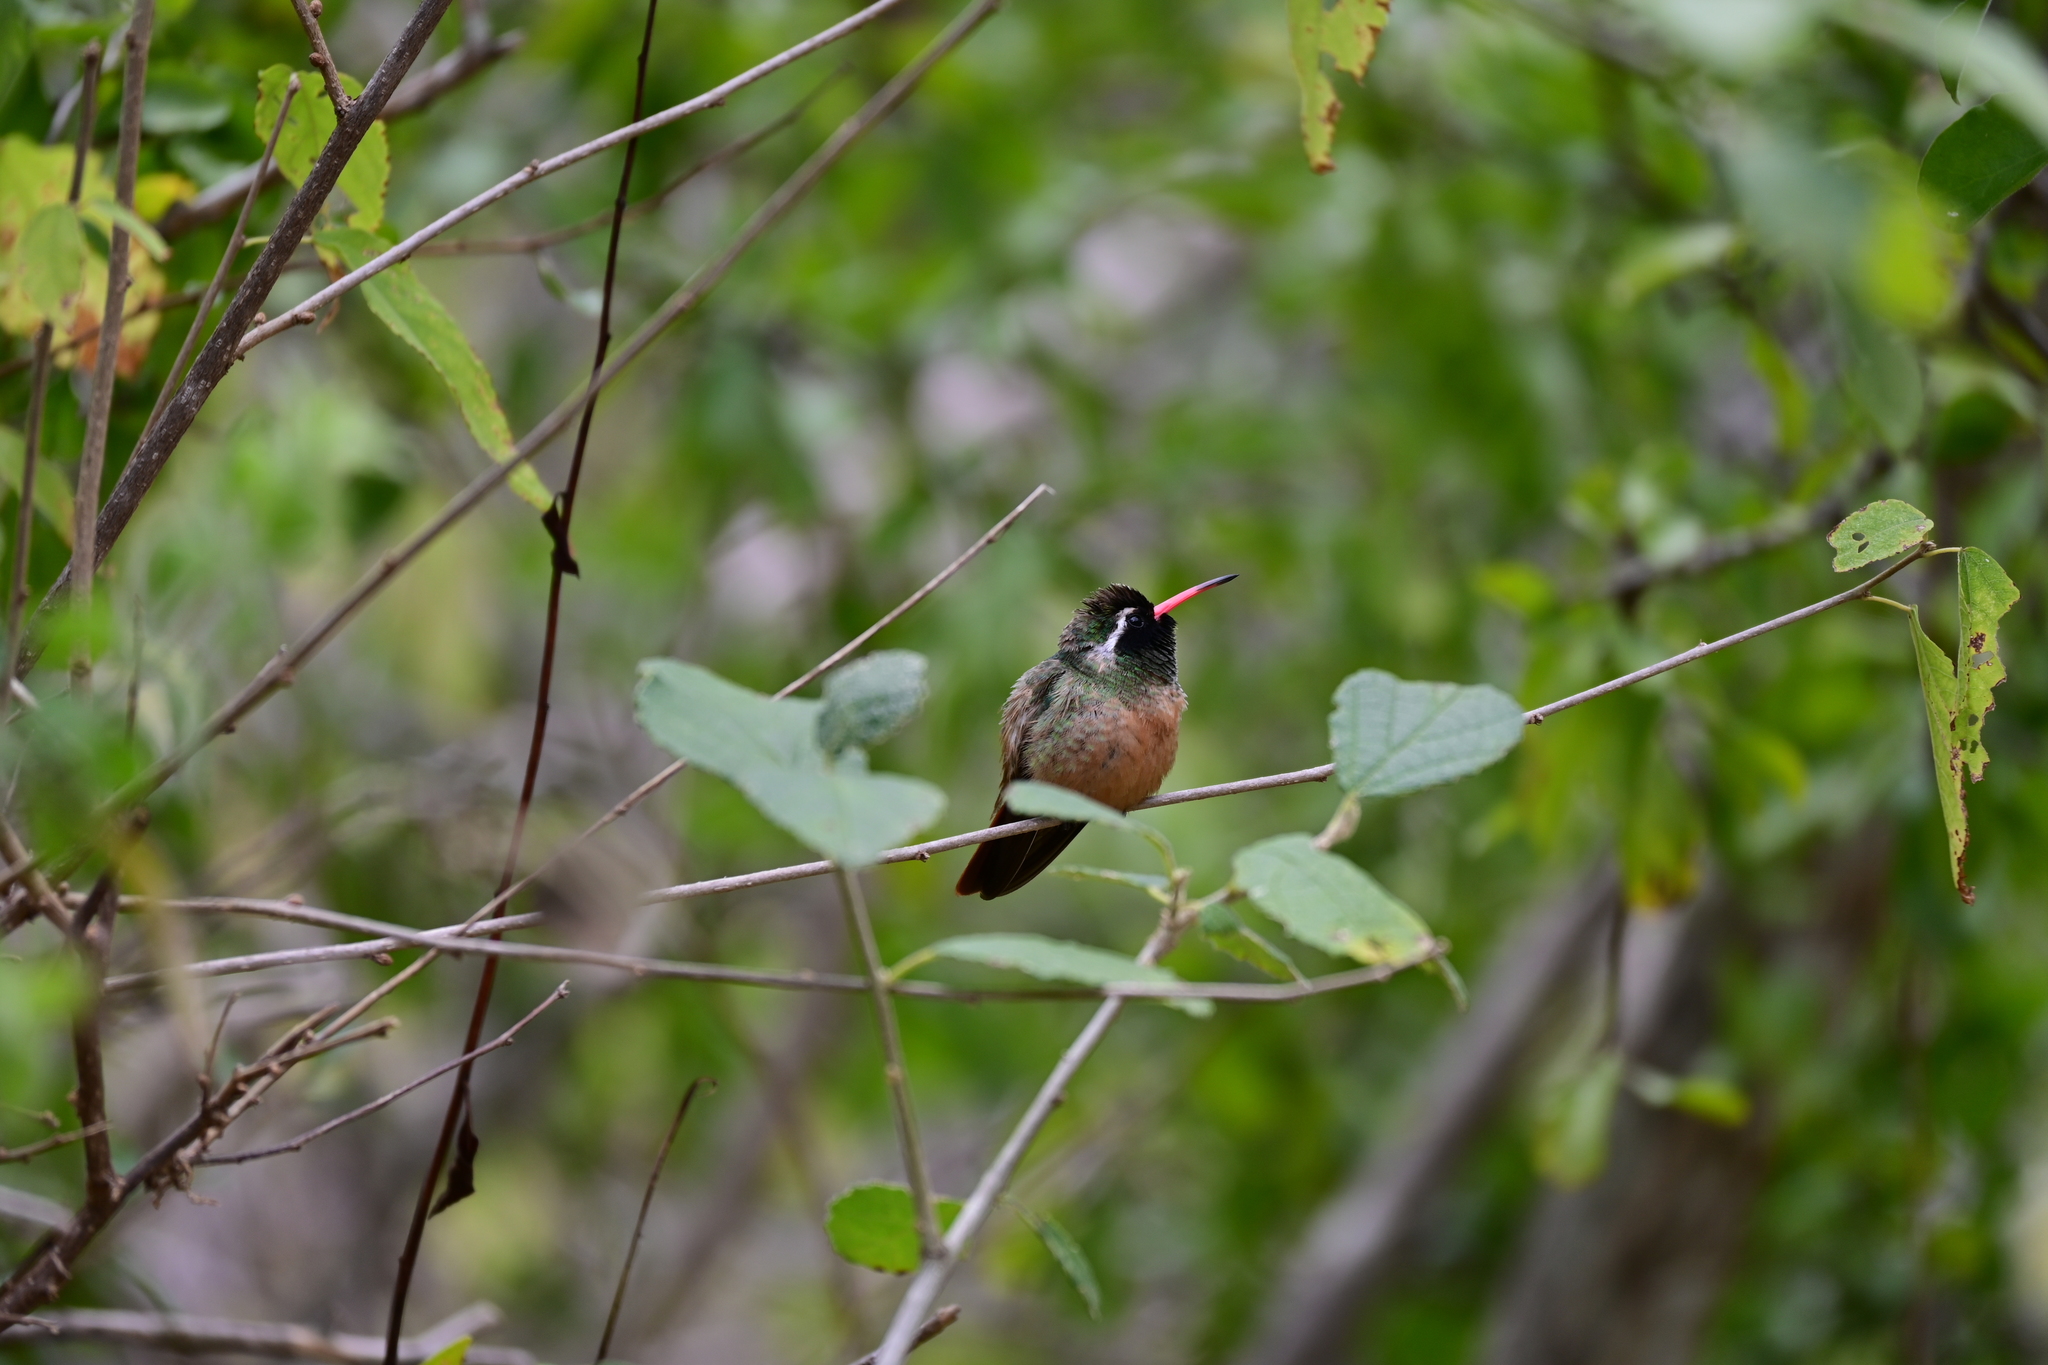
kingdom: Animalia
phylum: Chordata
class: Aves
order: Apodiformes
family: Trochilidae
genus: Basilinna
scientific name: Basilinna xantusii
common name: Xantus's hummingbird
